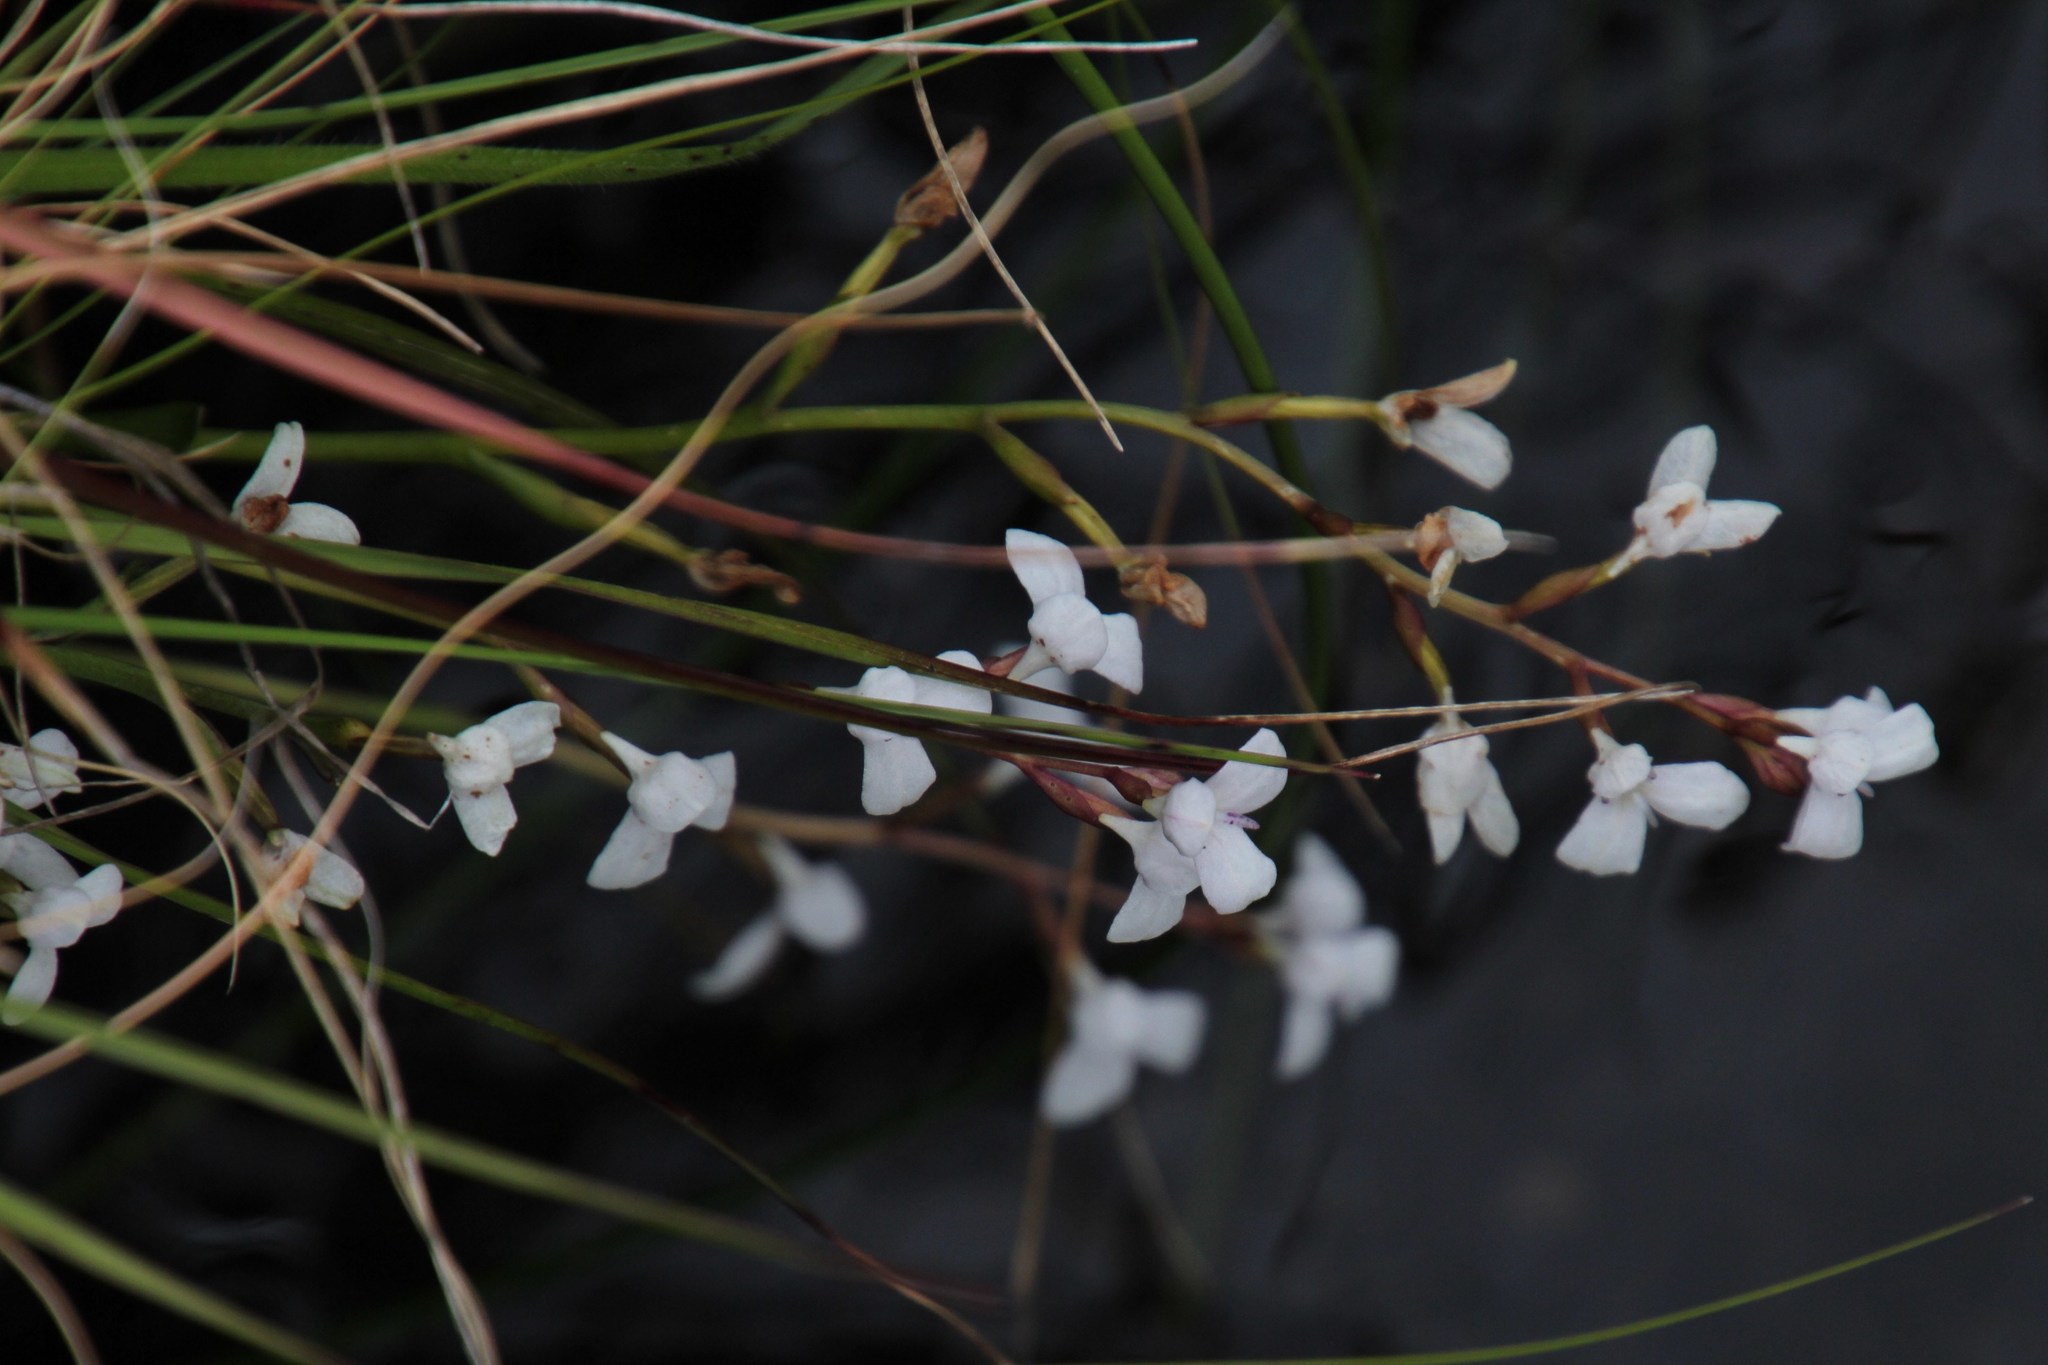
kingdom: Plantae
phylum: Tracheophyta
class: Liliopsida
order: Asparagales
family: Orchidaceae
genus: Disa
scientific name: Disa caulescens
